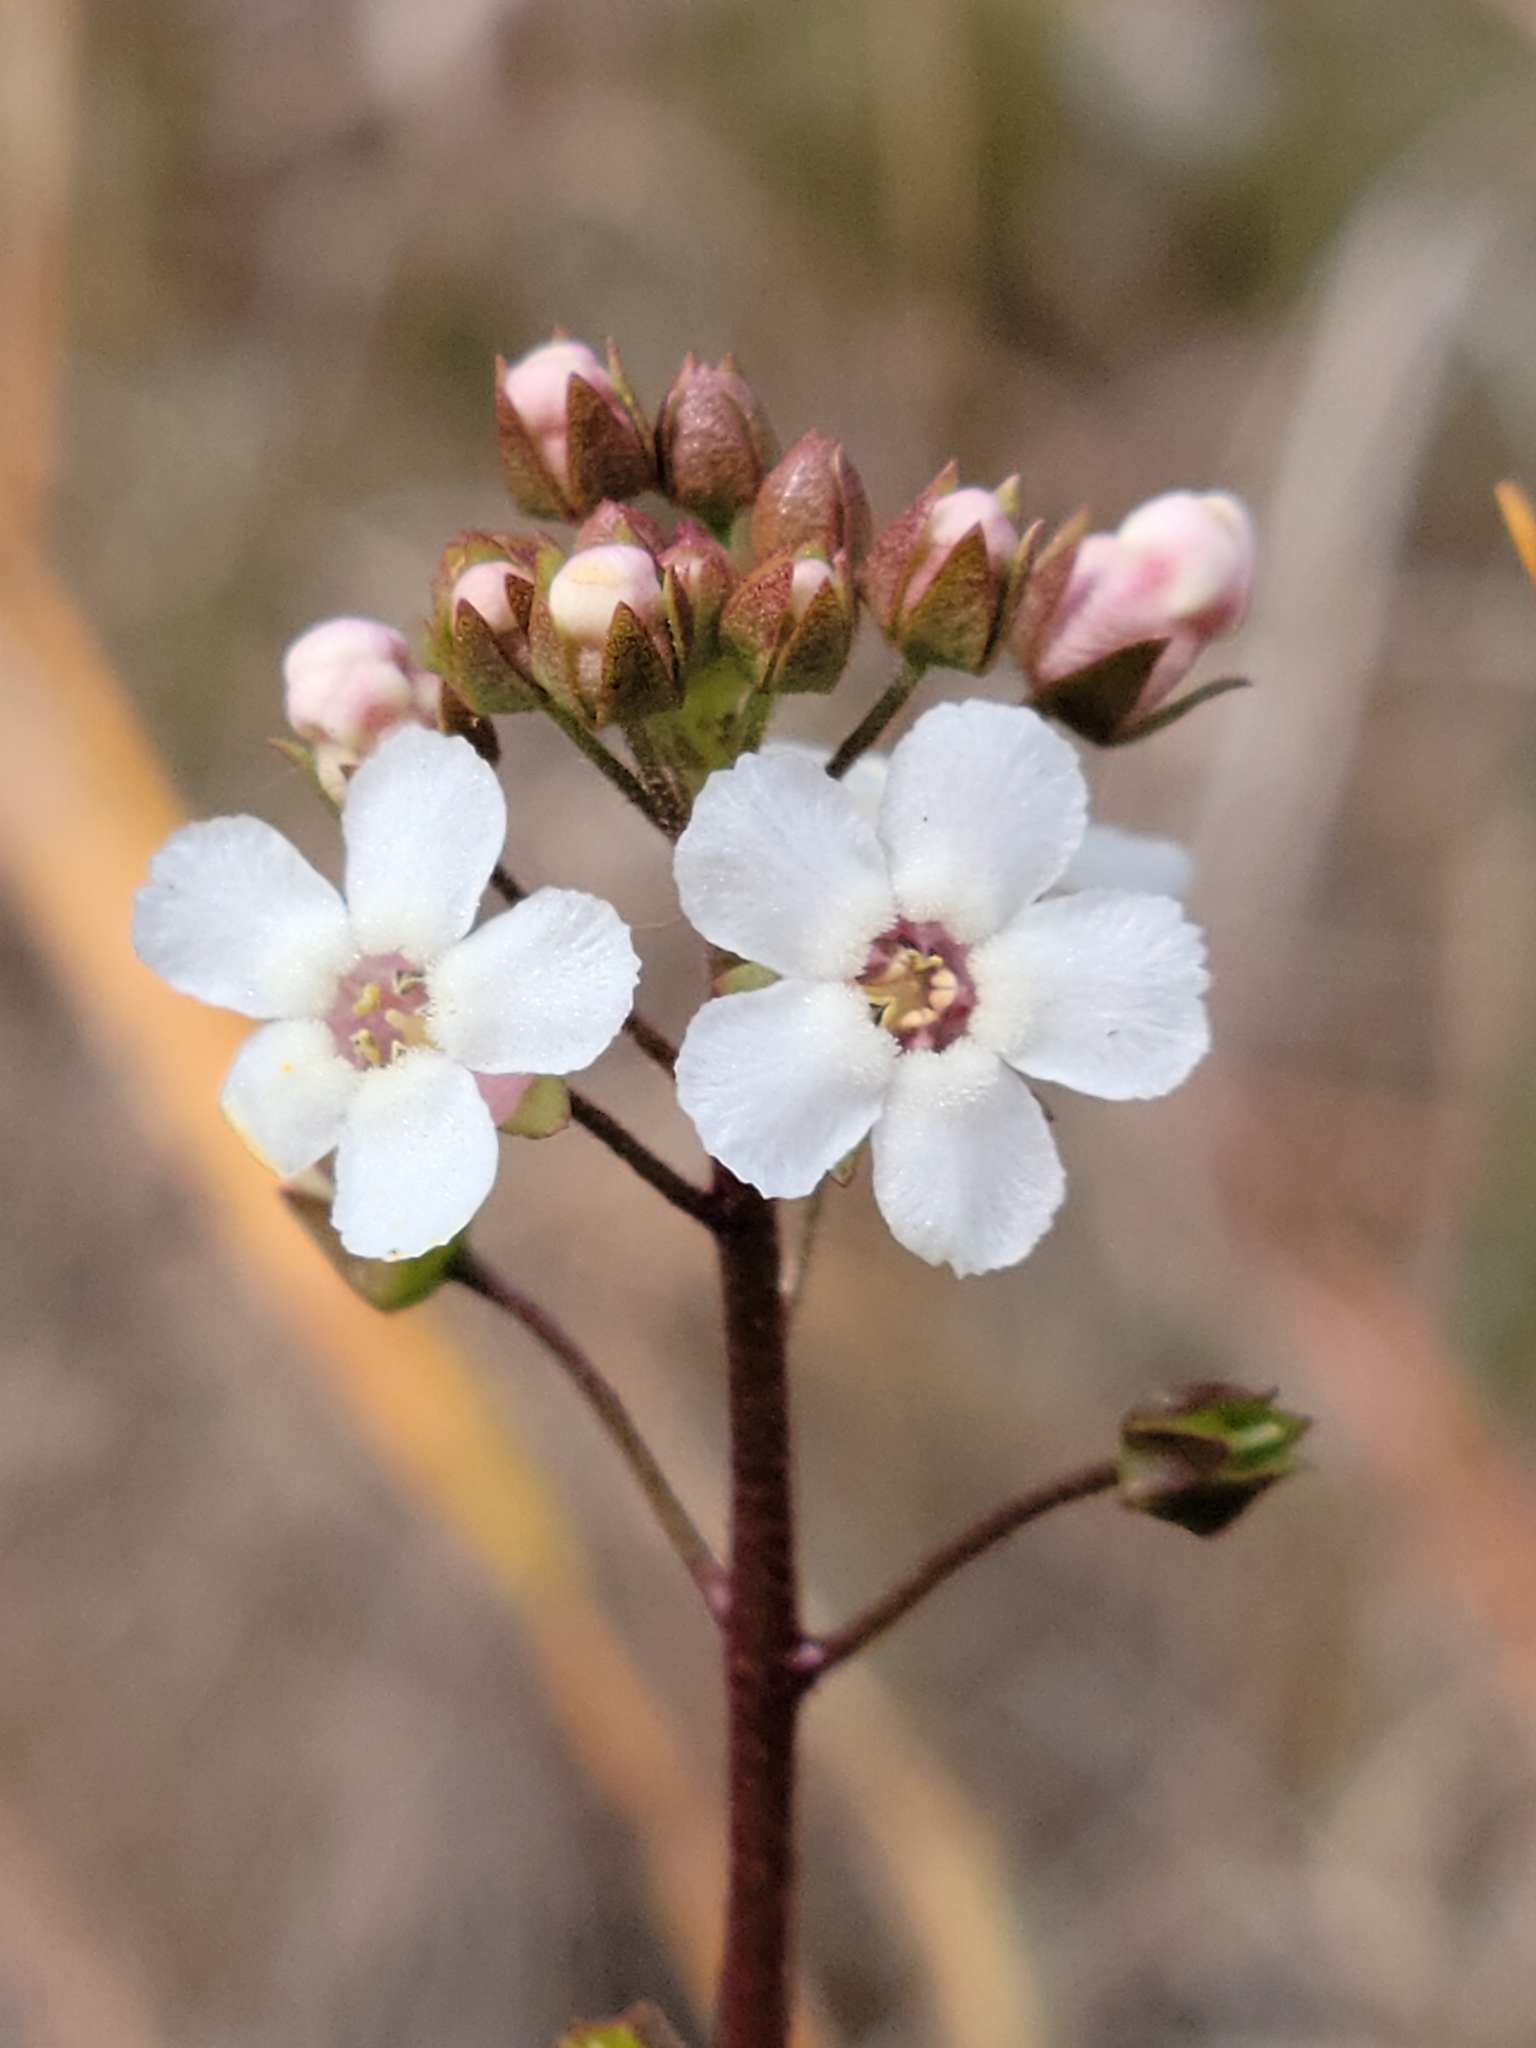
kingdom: Plantae
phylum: Tracheophyta
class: Magnoliopsida
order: Ericales
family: Primulaceae
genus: Samolus
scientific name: Samolus ebracteatus
